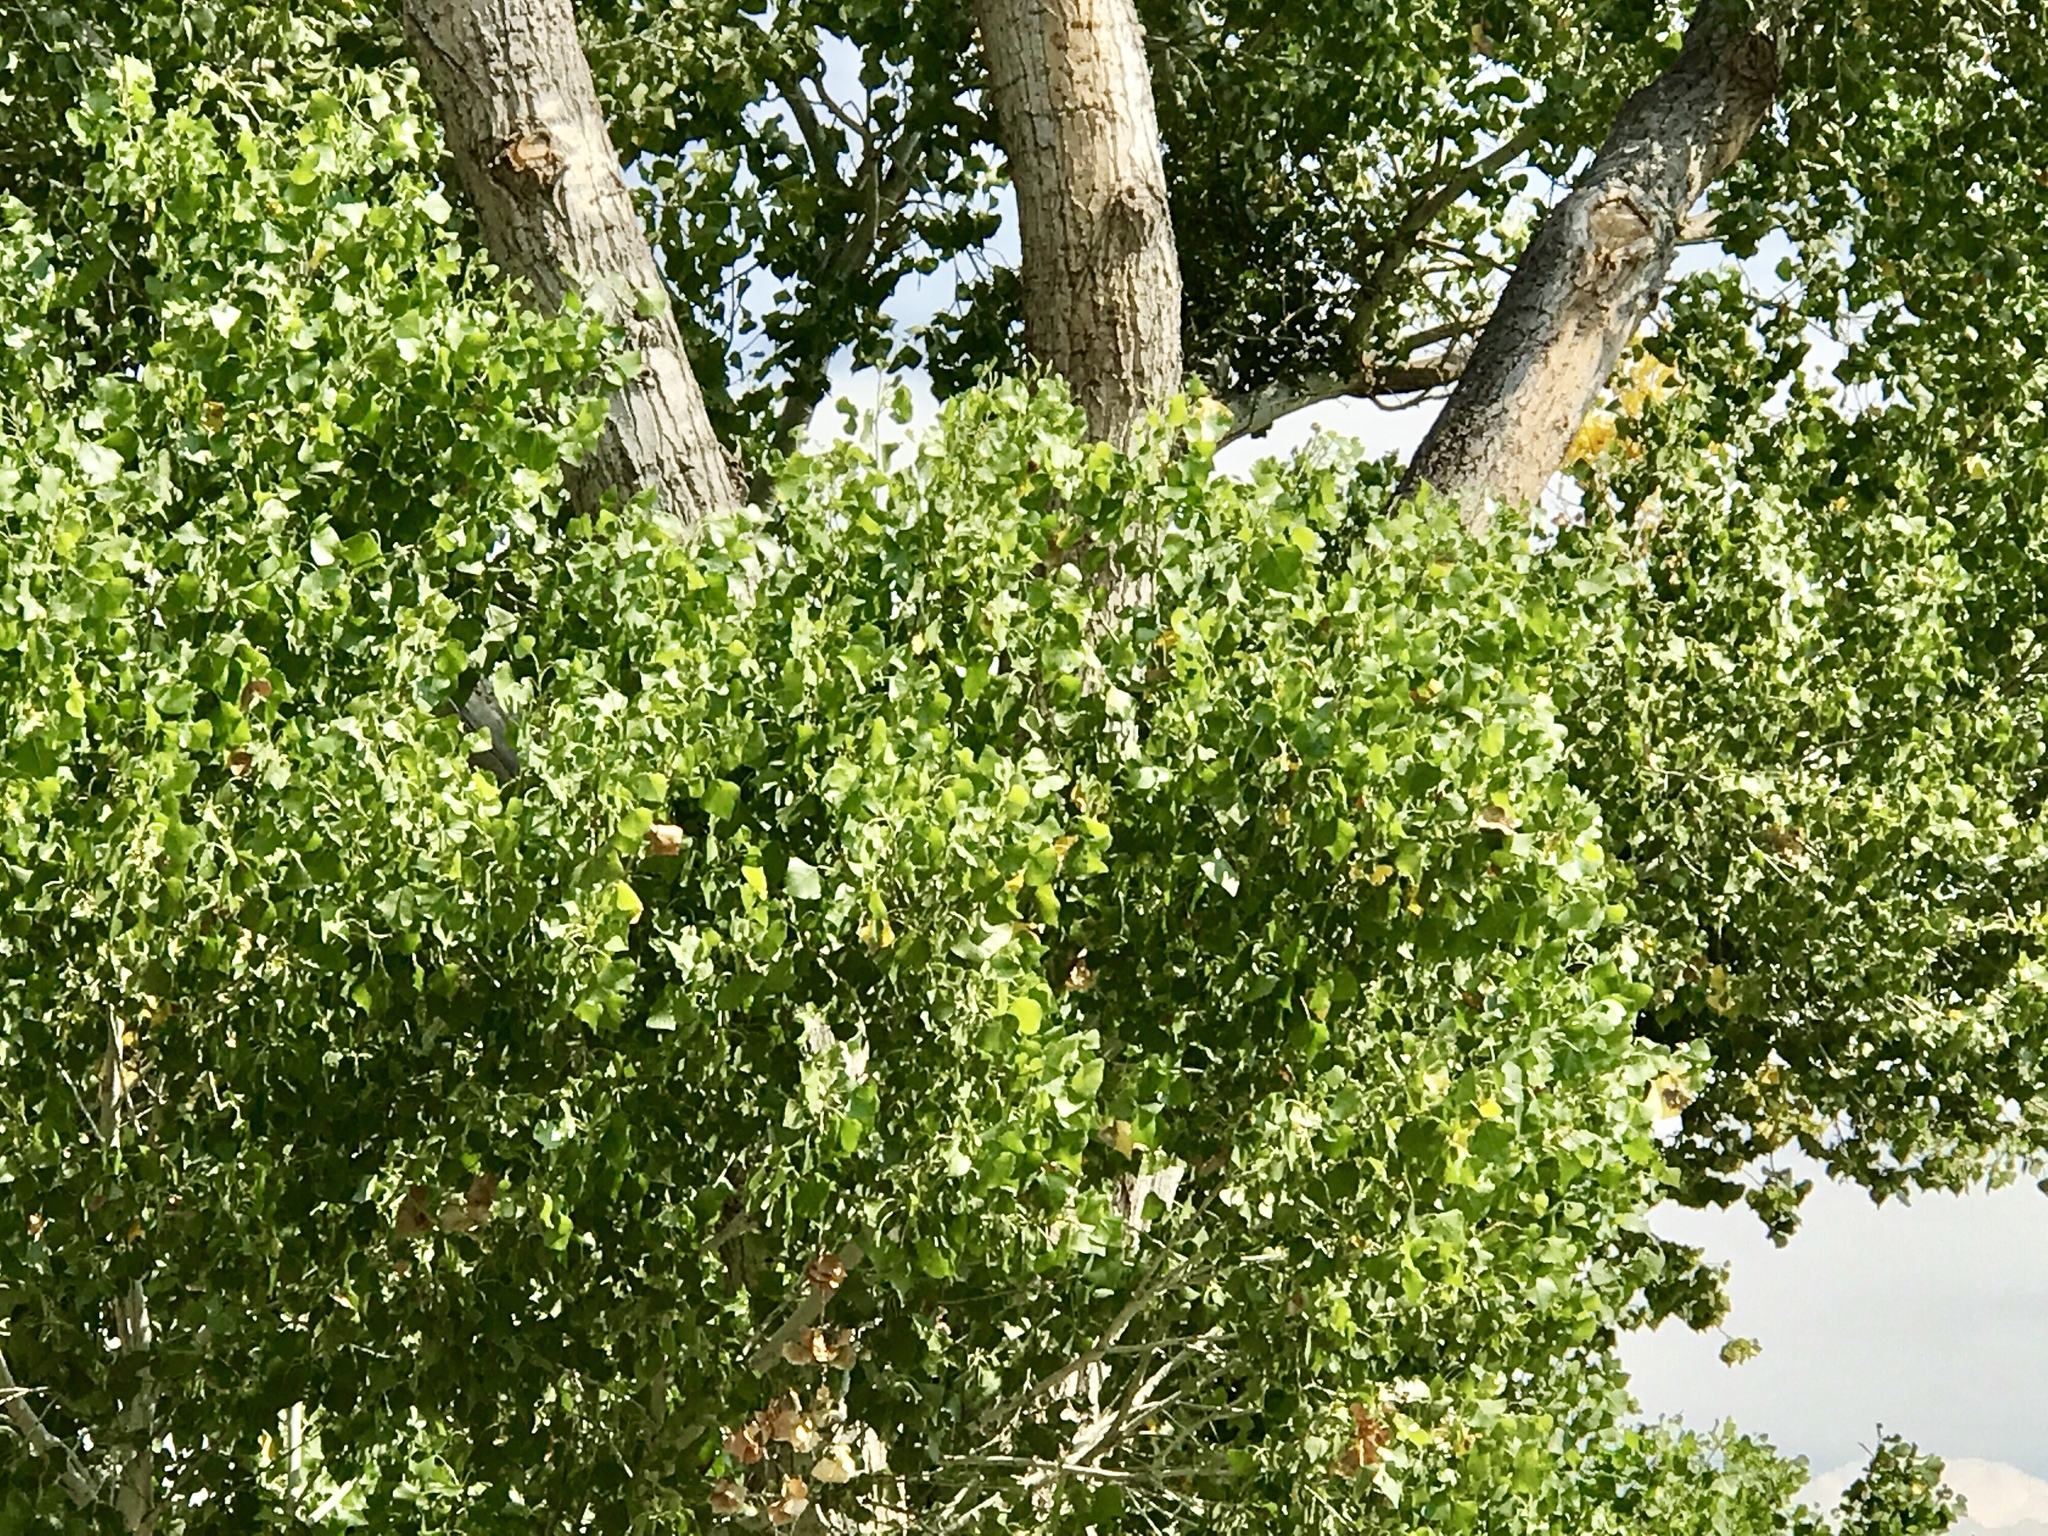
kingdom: Plantae
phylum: Tracheophyta
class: Magnoliopsida
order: Malpighiales
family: Salicaceae
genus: Populus
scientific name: Populus fremontii
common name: Fremont's cottonwood
